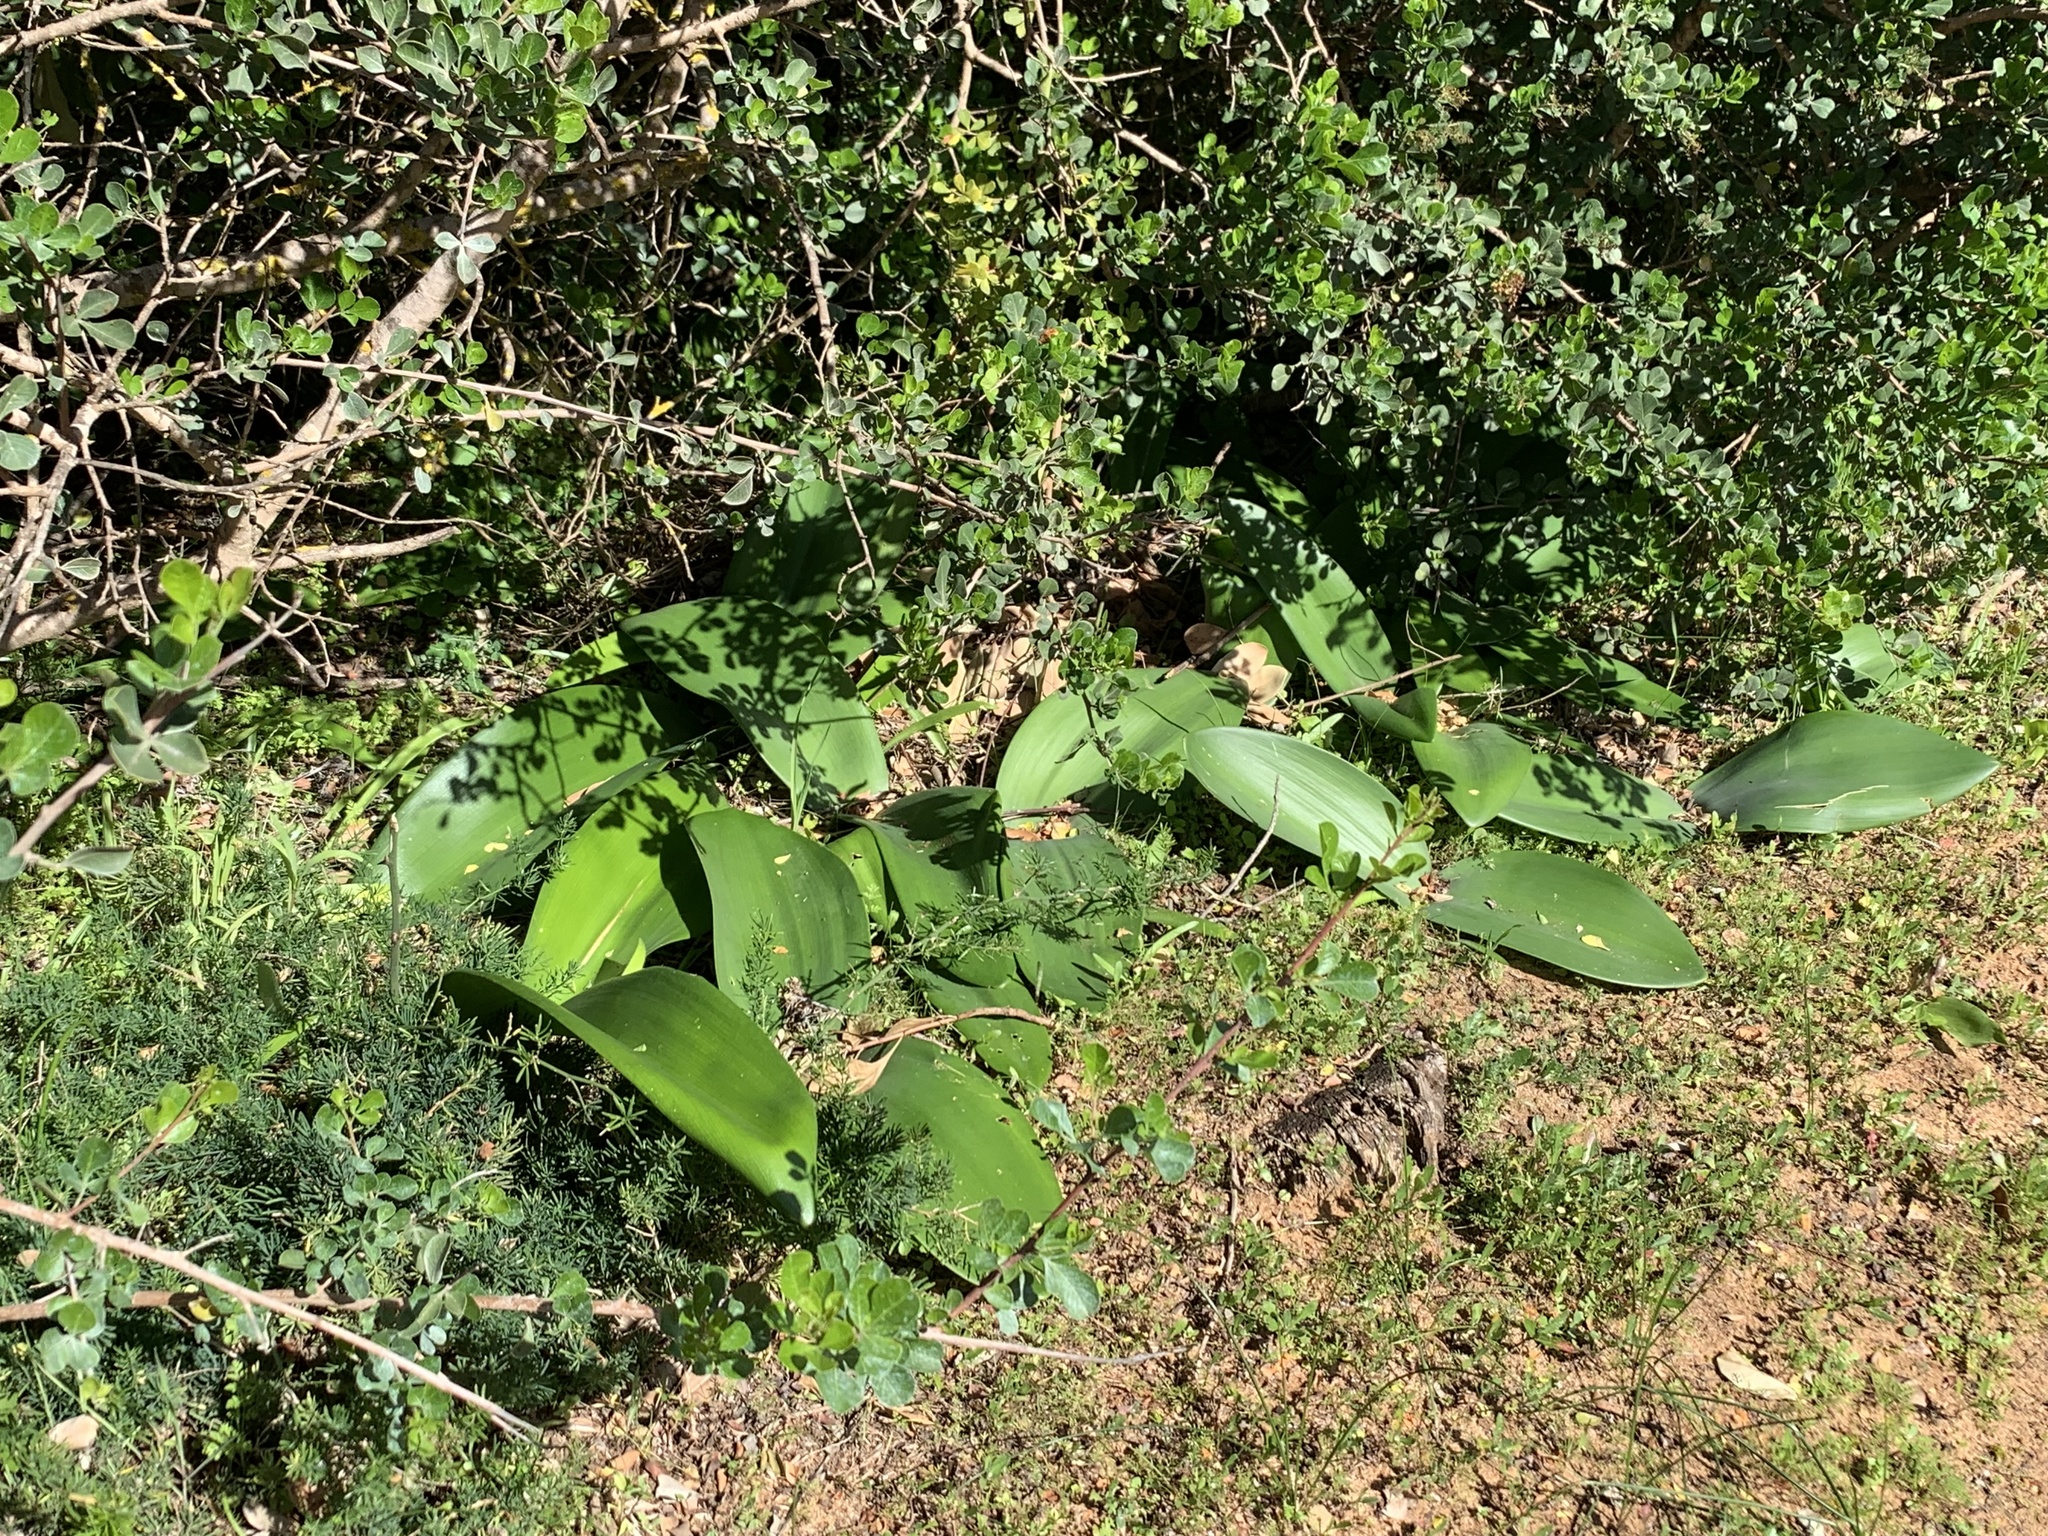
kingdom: Plantae
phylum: Tracheophyta
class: Liliopsida
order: Asparagales
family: Amaryllidaceae
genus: Haemanthus
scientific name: Haemanthus coccineus
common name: Cape-tulip
